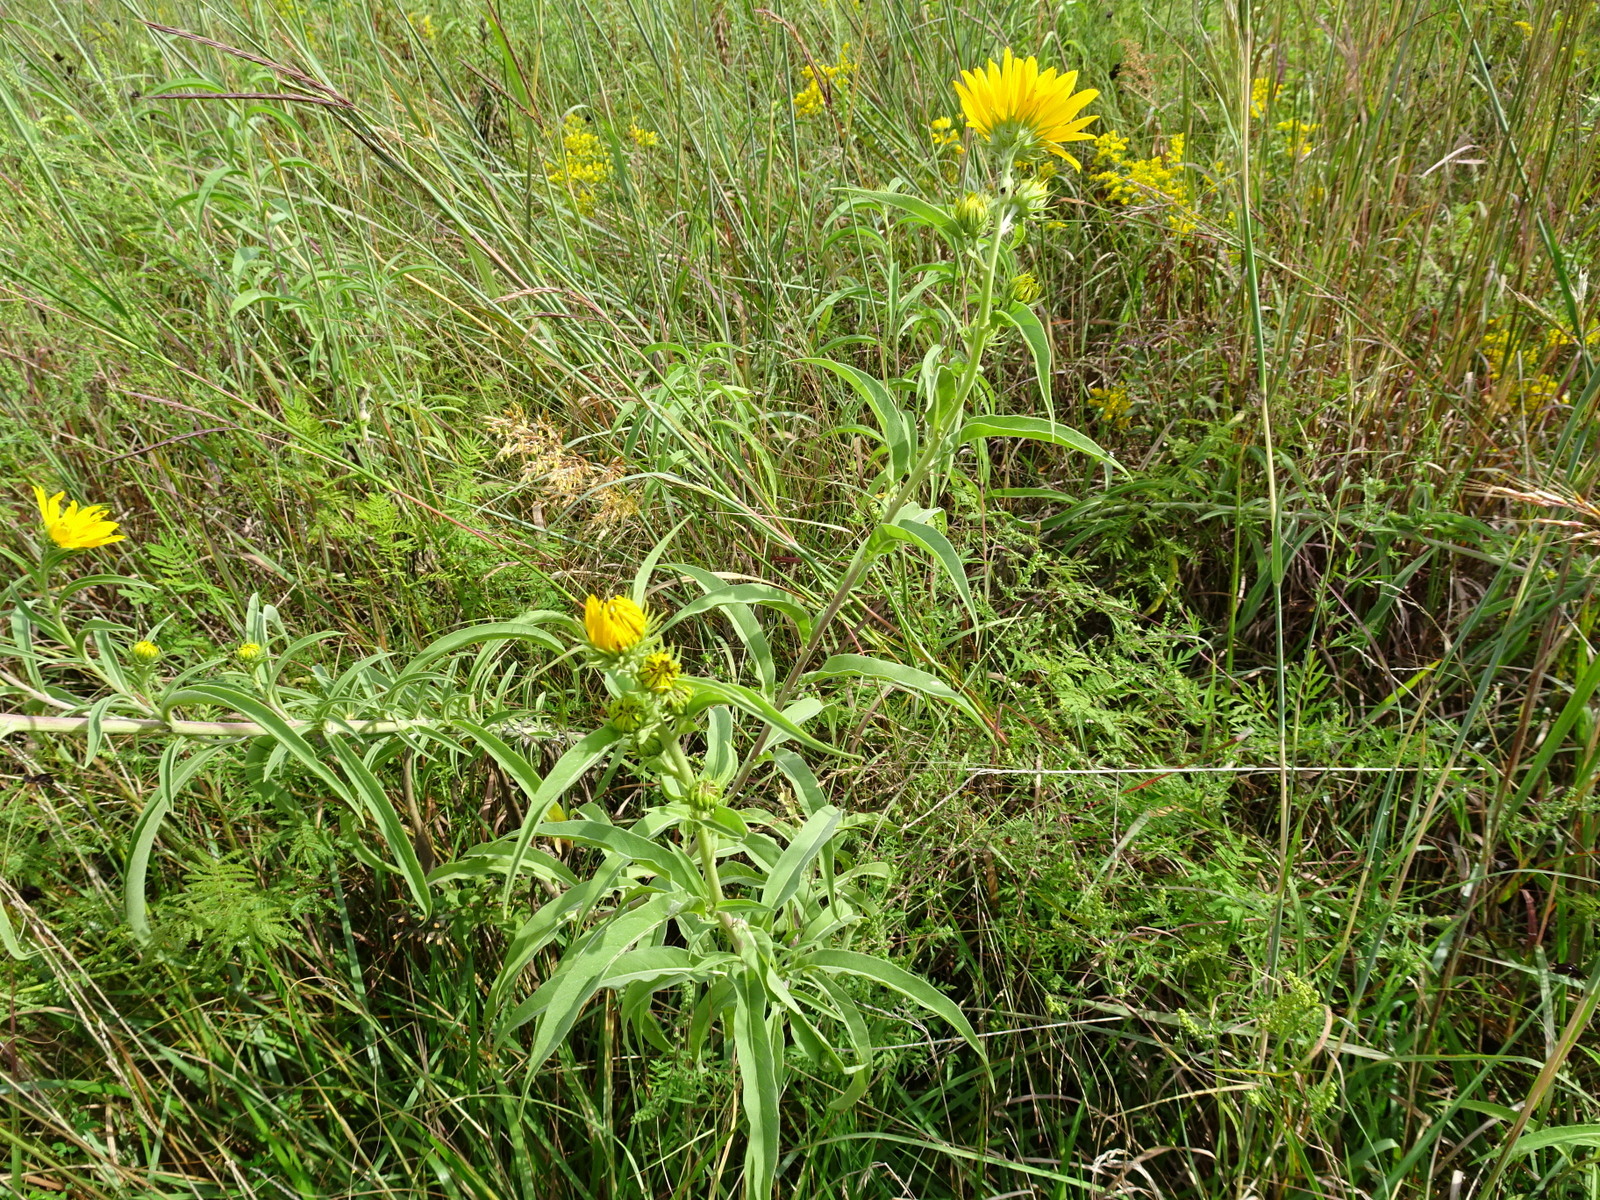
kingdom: Plantae
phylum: Tracheophyta
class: Magnoliopsida
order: Asterales
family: Asteraceae
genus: Helianthus
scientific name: Helianthus maximiliani
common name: Maximilian's sunflower
